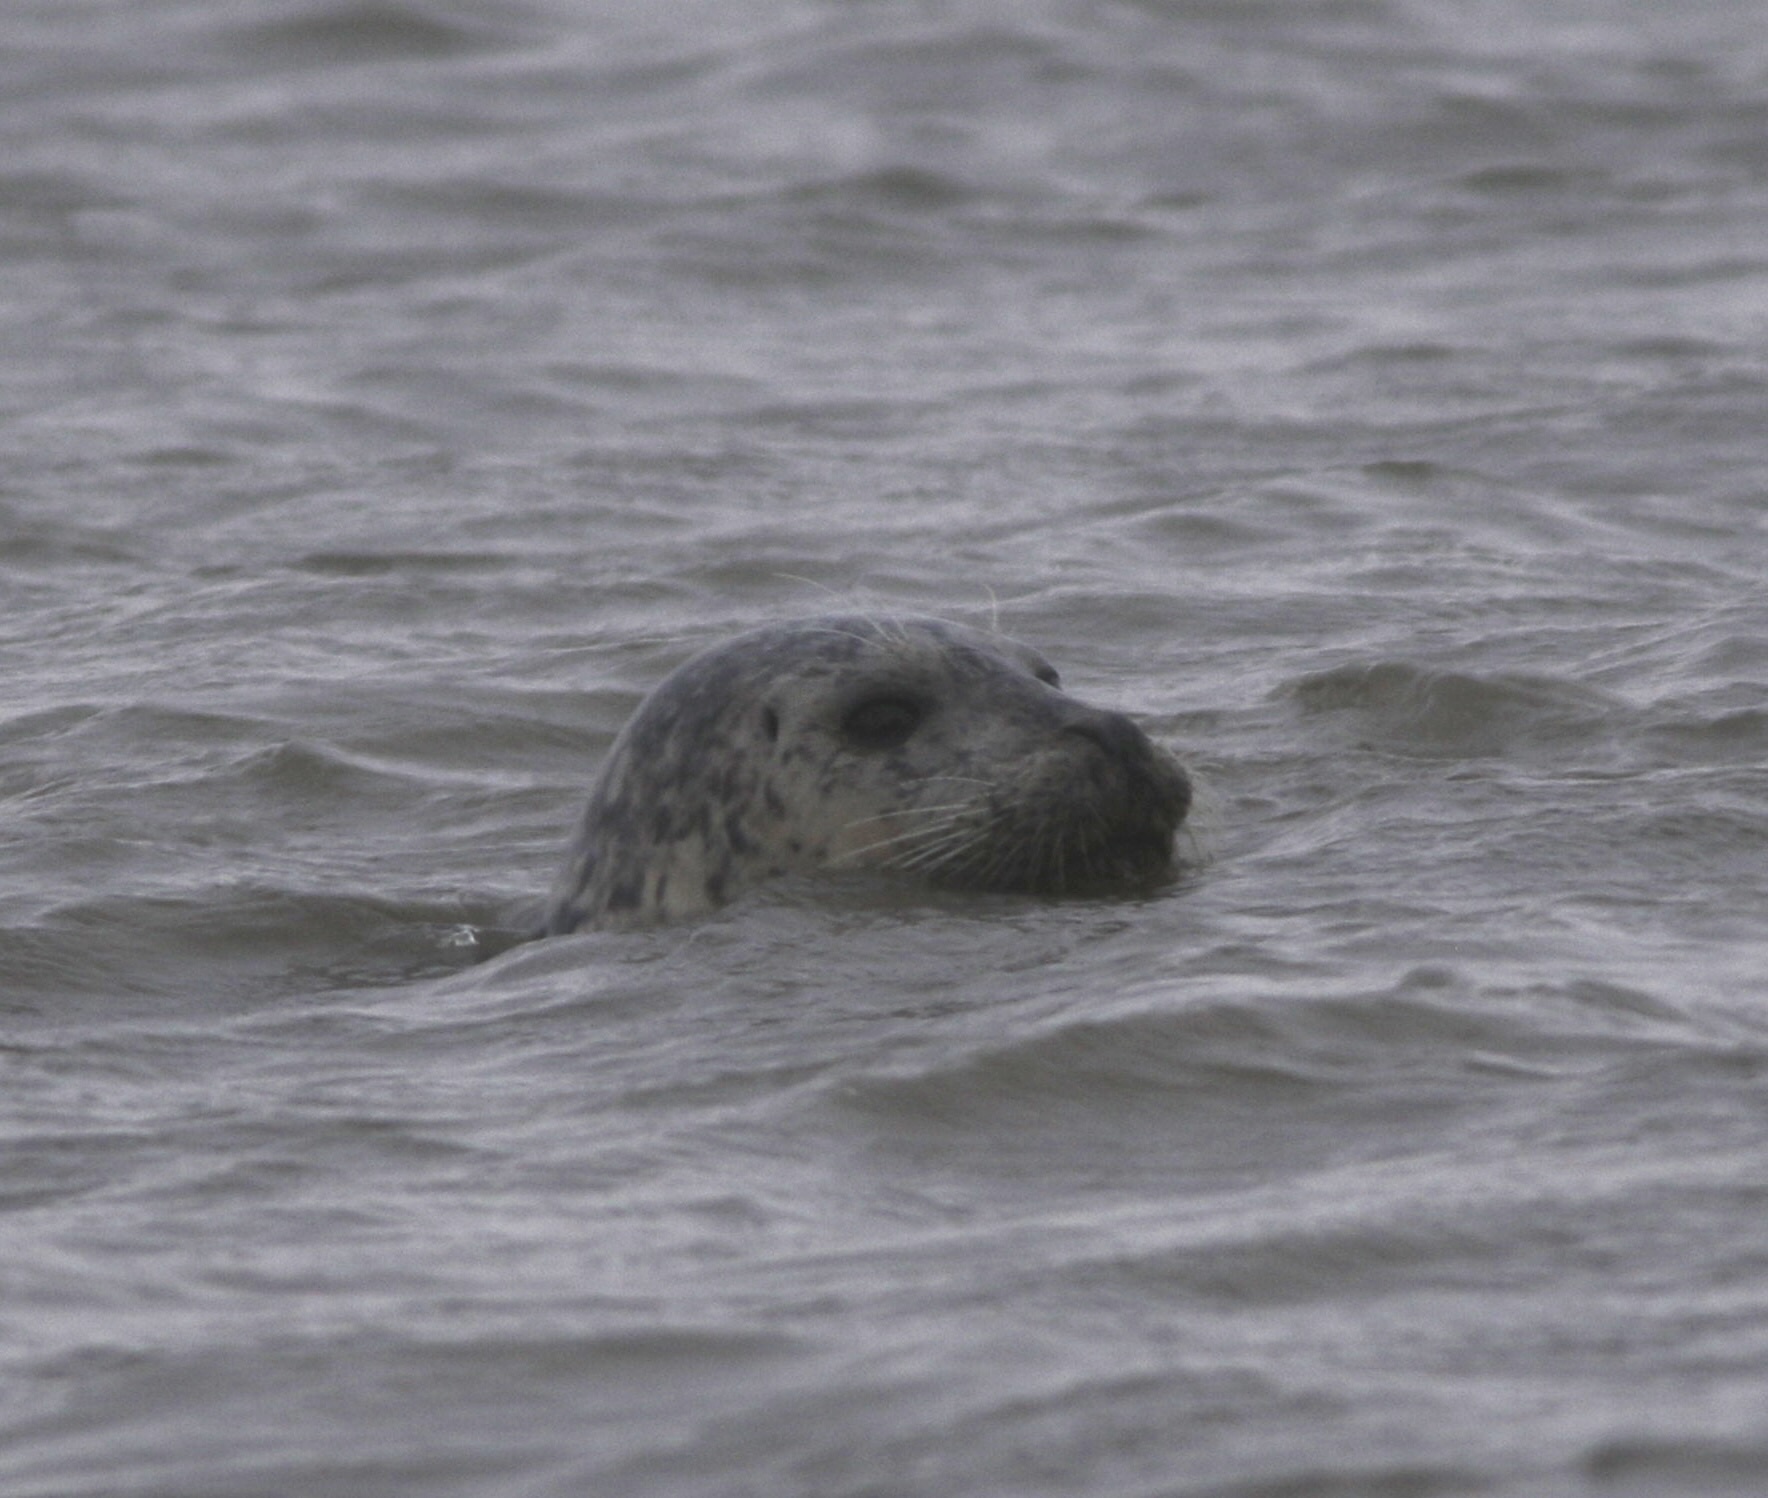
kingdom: Animalia
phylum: Chordata
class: Mammalia
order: Carnivora
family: Phocidae
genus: Phoca
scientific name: Phoca vitulina
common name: Harbor seal
